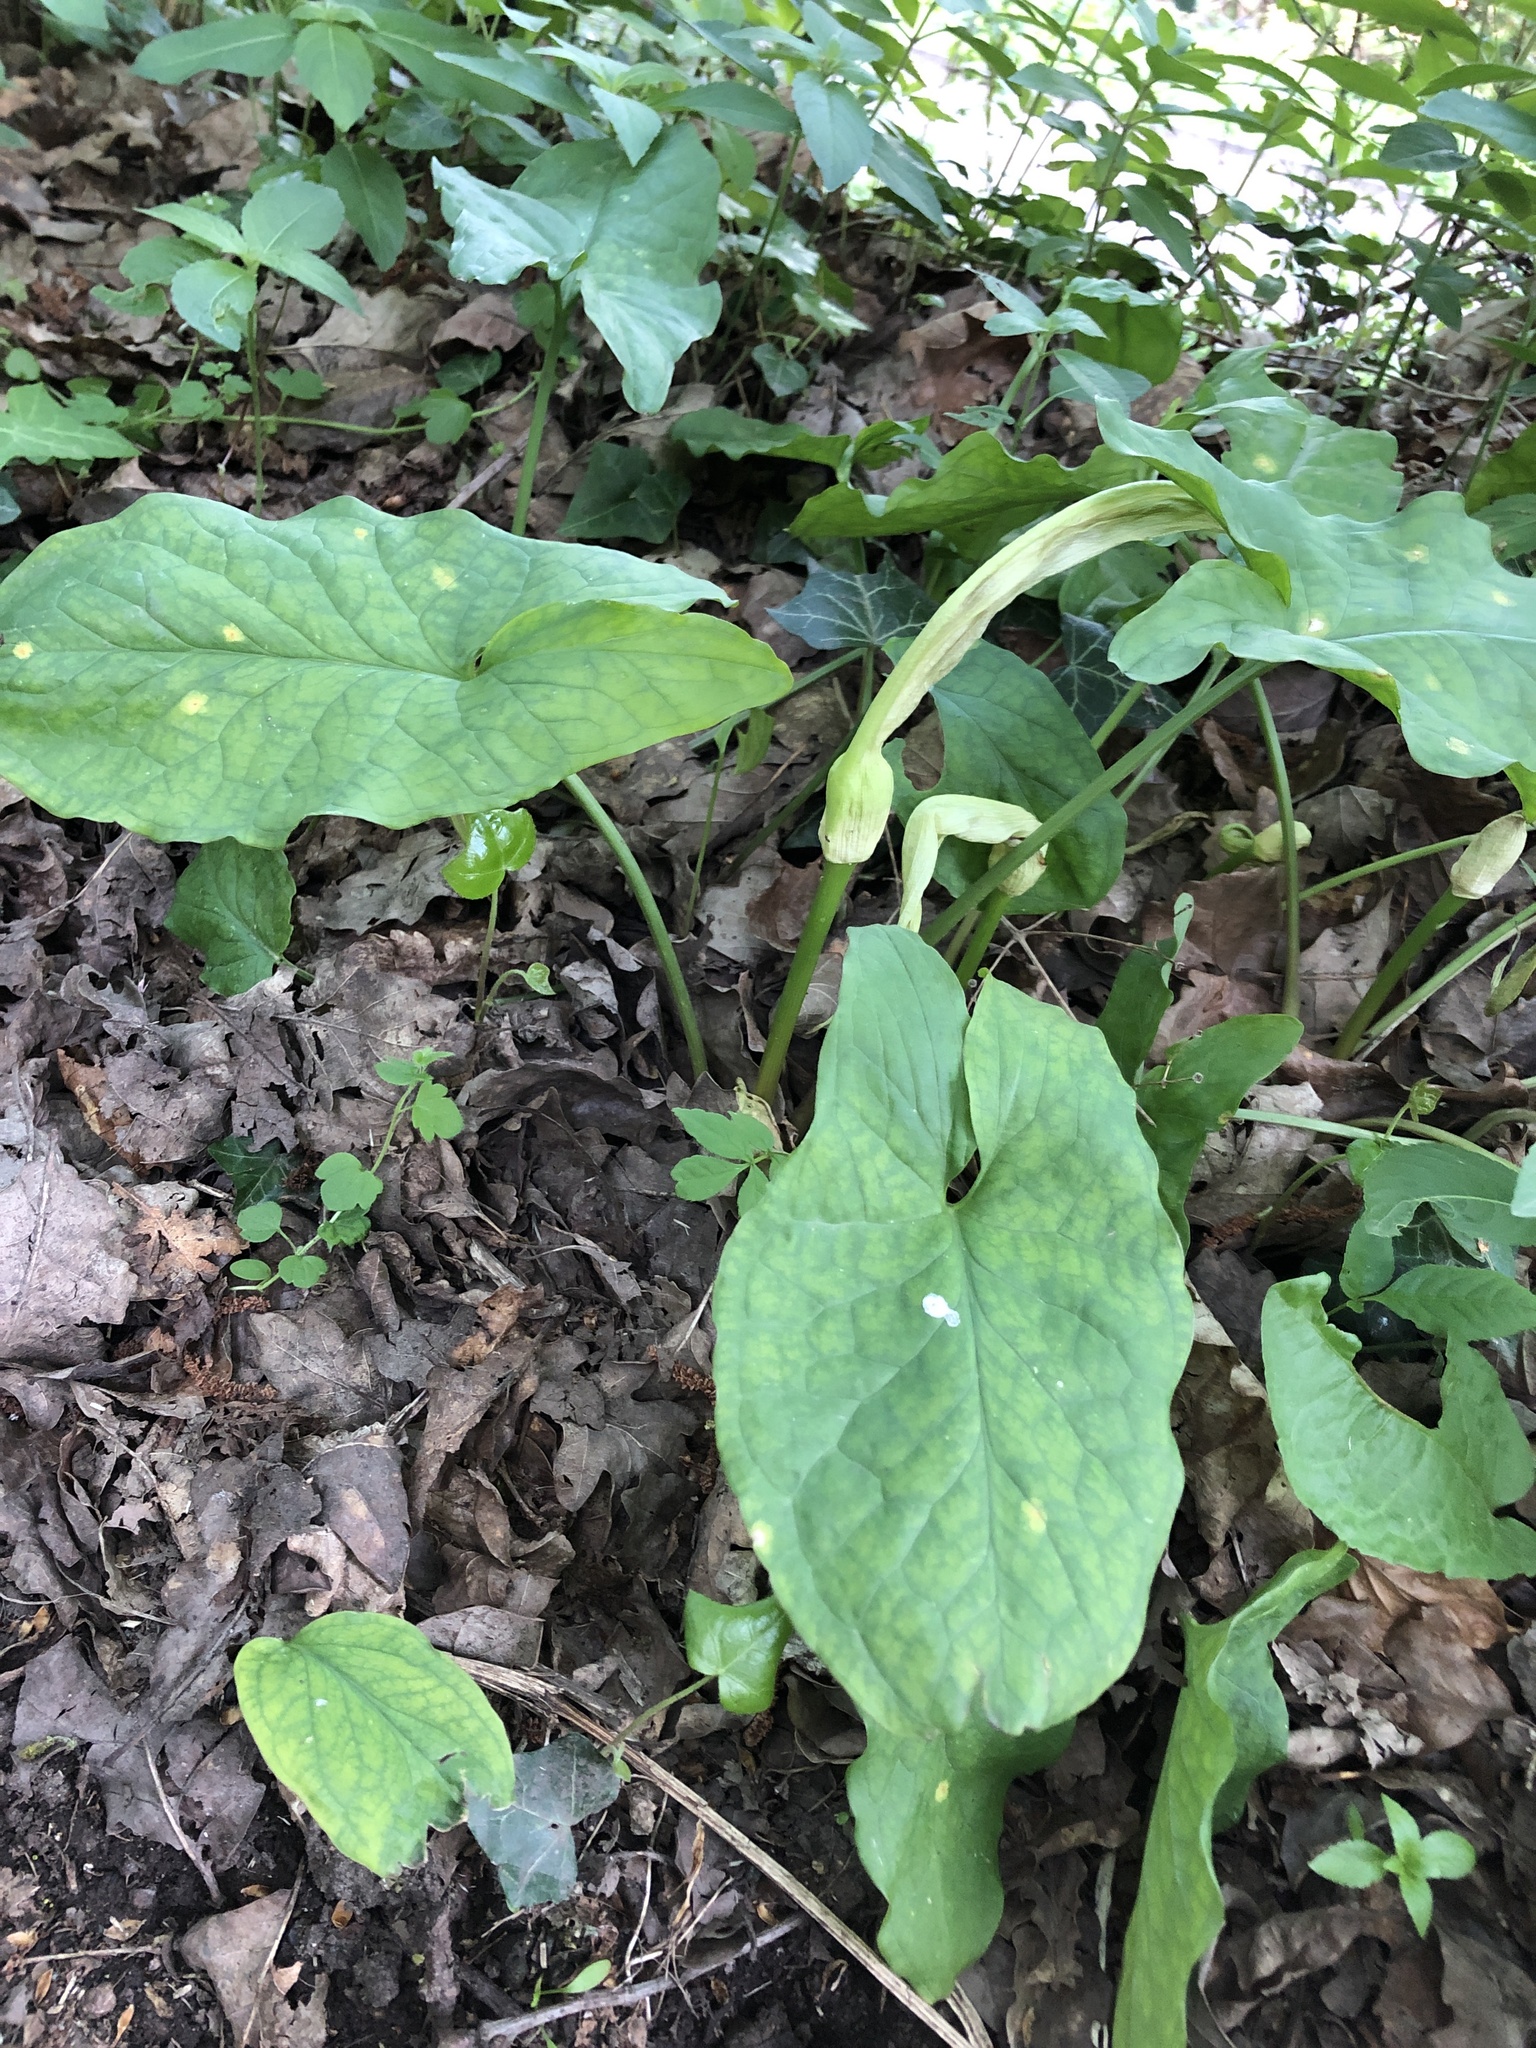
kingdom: Plantae
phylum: Tracheophyta
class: Liliopsida
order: Alismatales
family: Araceae
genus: Arum
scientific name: Arum maculatum
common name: Lords-and-ladies
